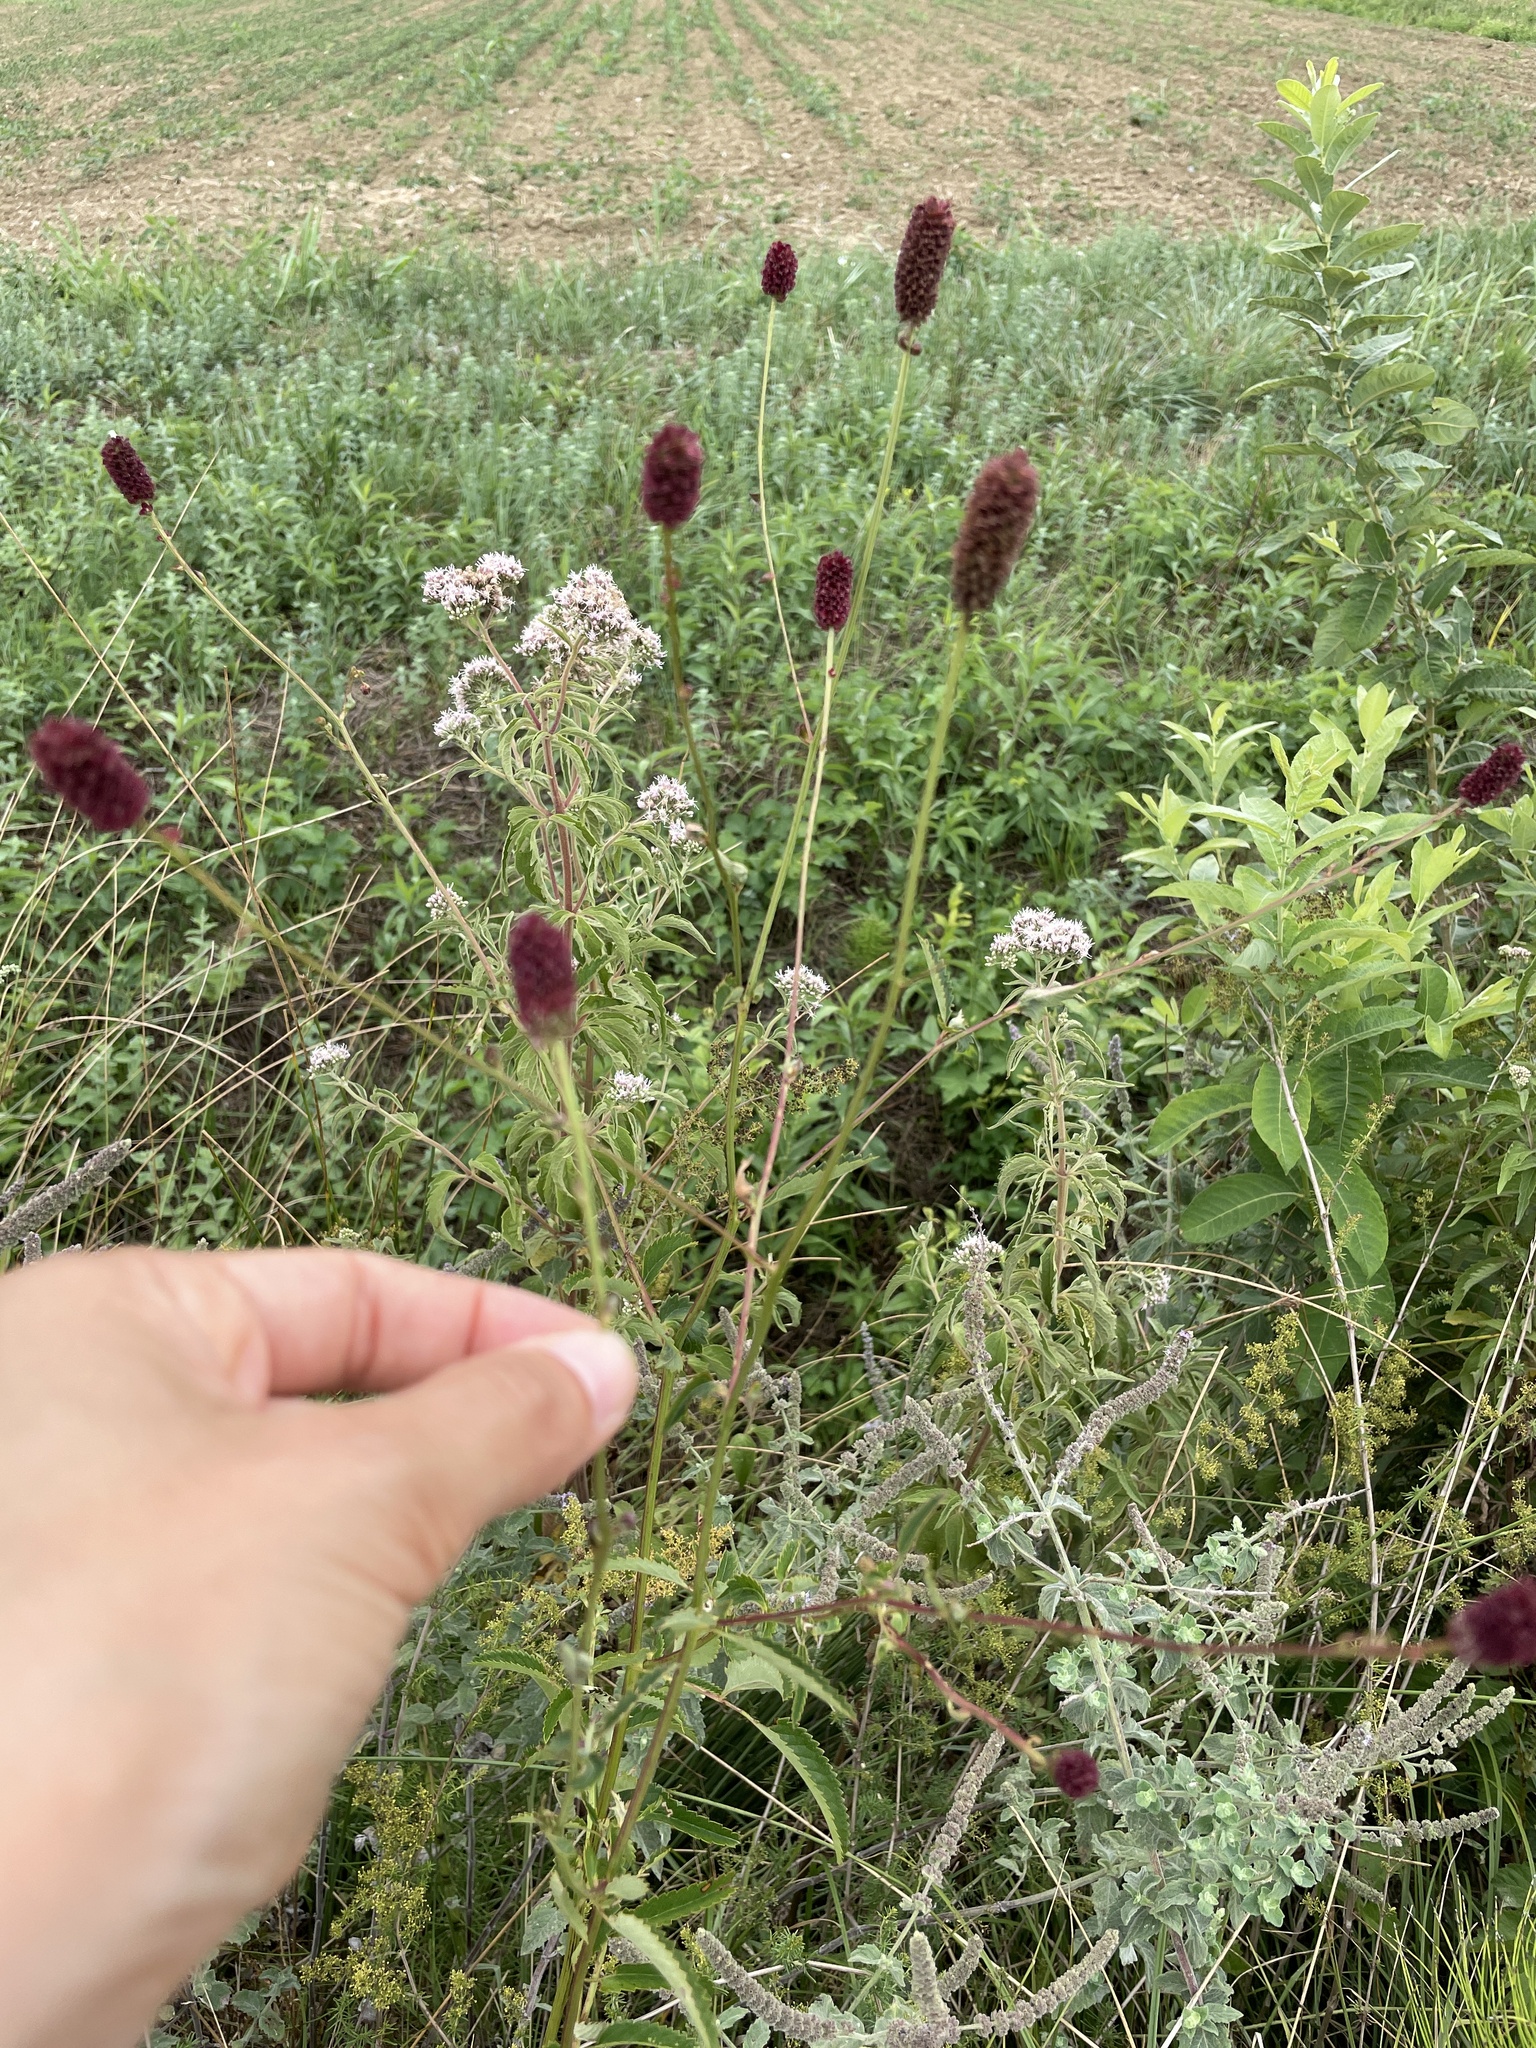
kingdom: Plantae
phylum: Tracheophyta
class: Magnoliopsida
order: Rosales
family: Rosaceae
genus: Sanguisorba
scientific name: Sanguisorba officinalis
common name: Great burnet
